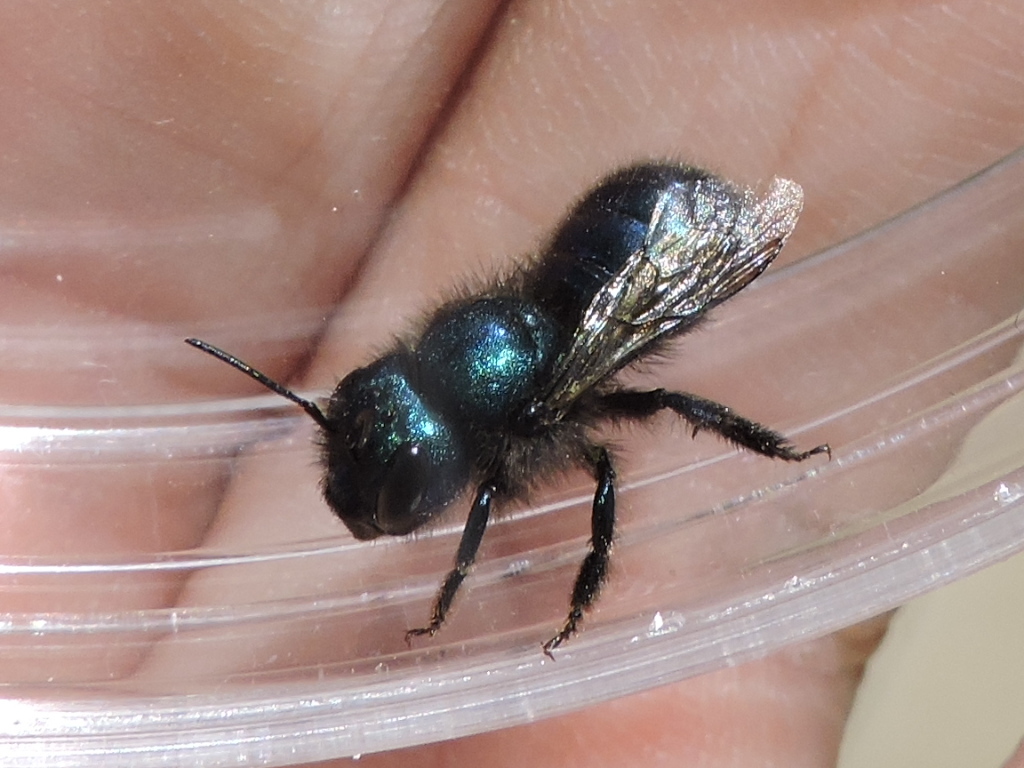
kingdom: Animalia
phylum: Arthropoda
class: Insecta
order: Hymenoptera
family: Megachilidae
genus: Osmia
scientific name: Osmia ribifloris
